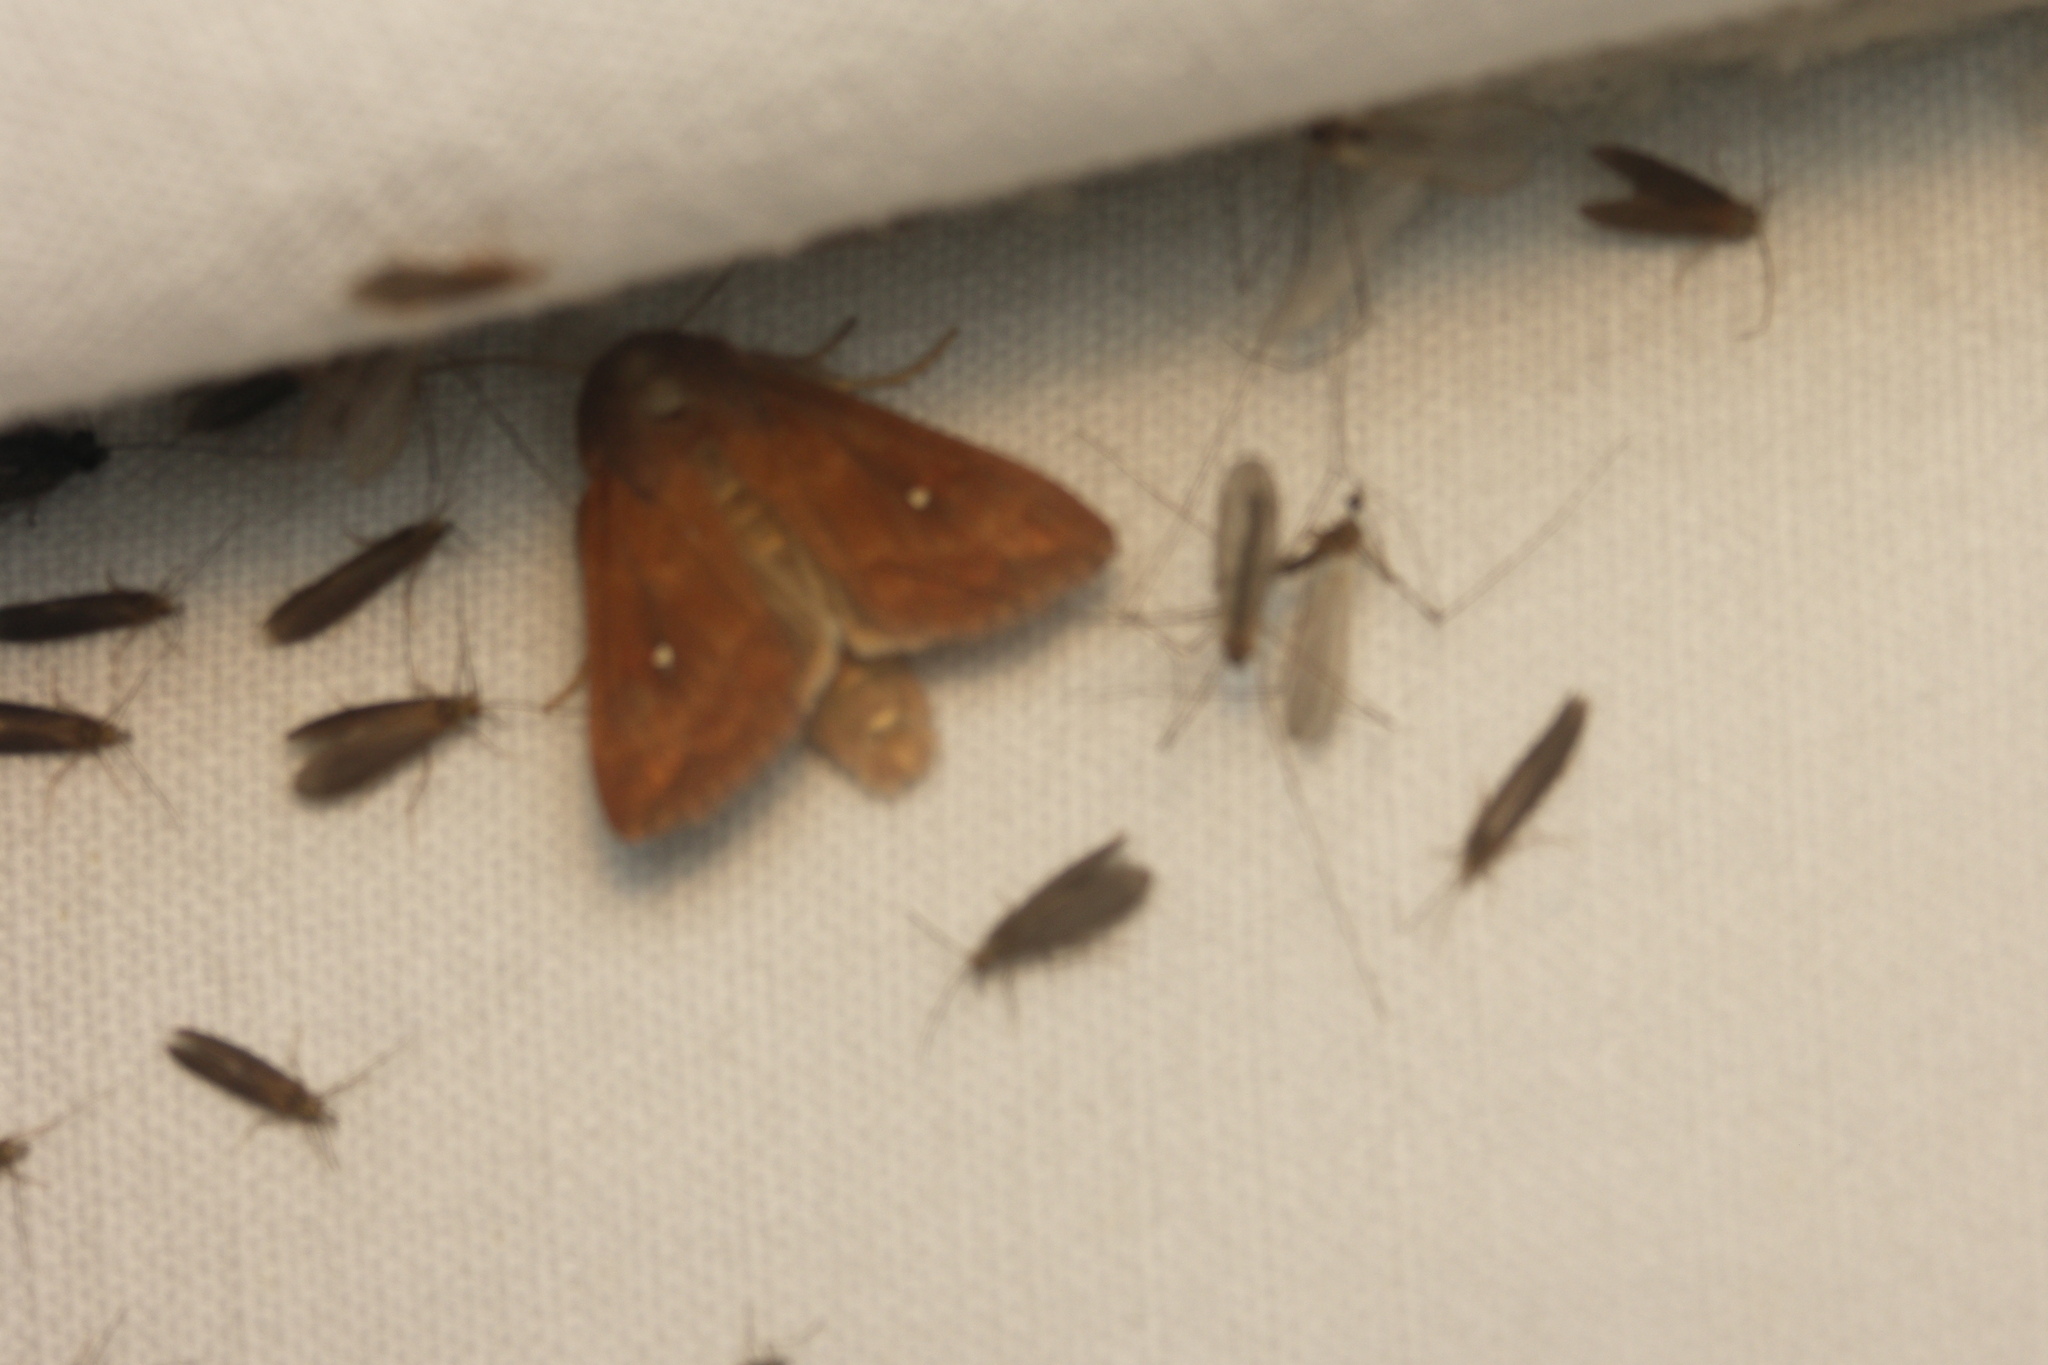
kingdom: Animalia
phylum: Arthropoda
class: Insecta
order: Lepidoptera
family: Noctuidae
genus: Mythimna
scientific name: Mythimna albipuncta
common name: White-point
